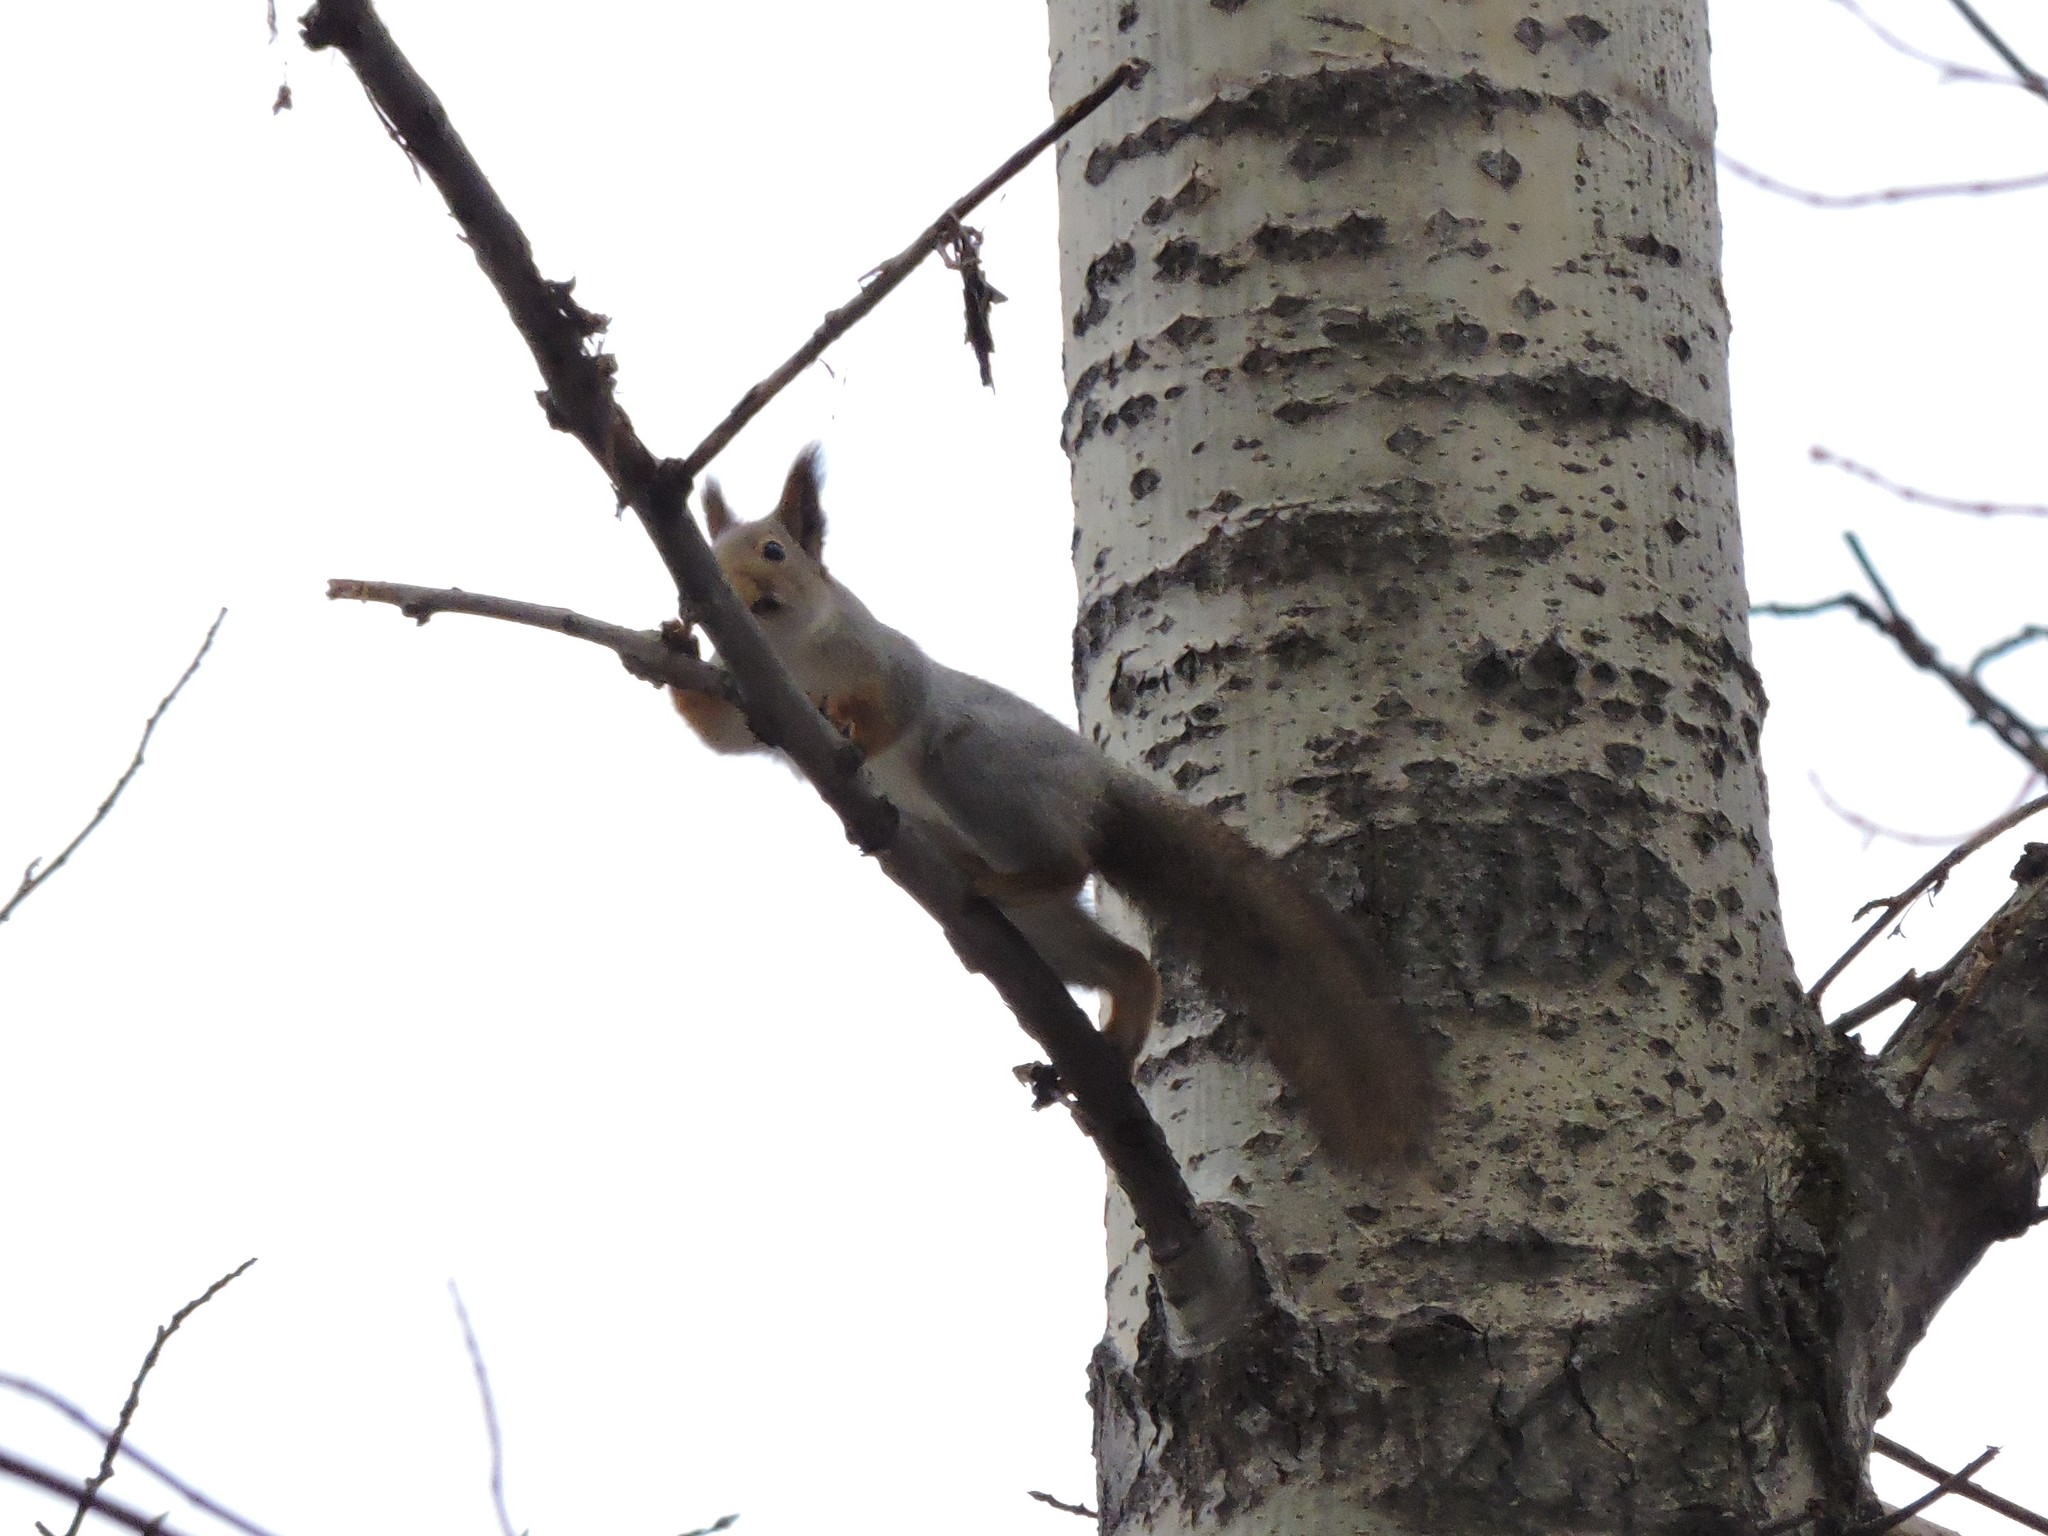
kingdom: Animalia
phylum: Chordata
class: Mammalia
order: Rodentia
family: Sciuridae
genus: Sciurus
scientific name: Sciurus vulgaris
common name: Eurasian red squirrel
